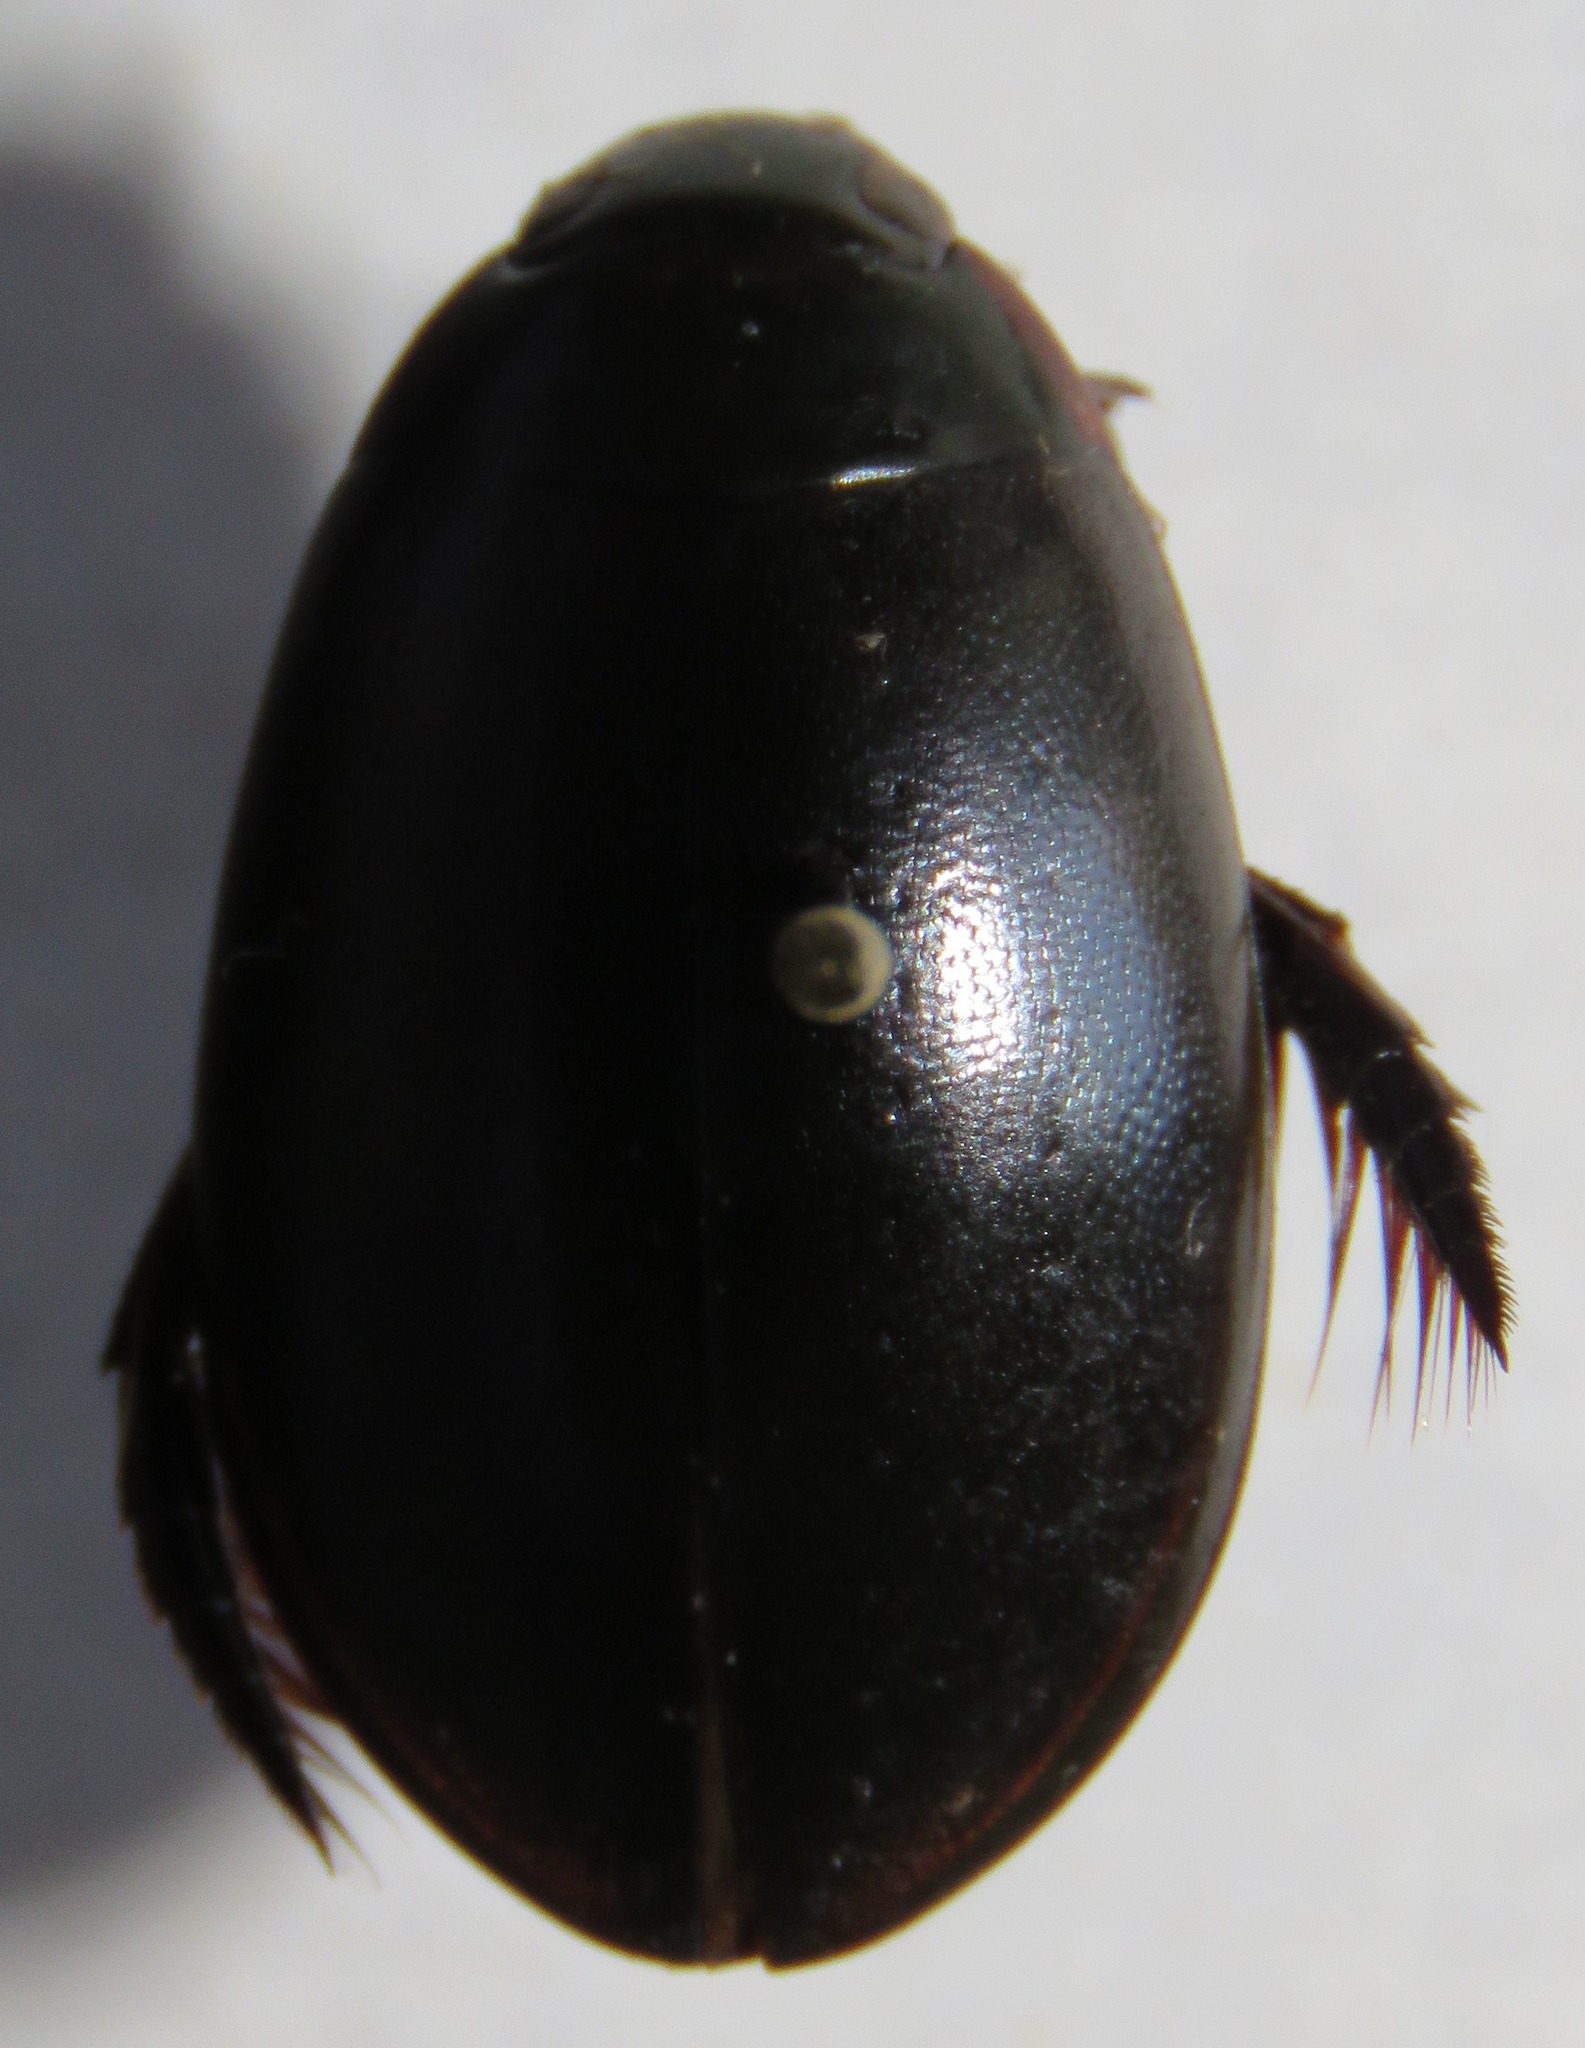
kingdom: Animalia
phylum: Arthropoda
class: Insecta
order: Coleoptera
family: Dytiscidae
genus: Megadytes
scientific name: Megadytes
